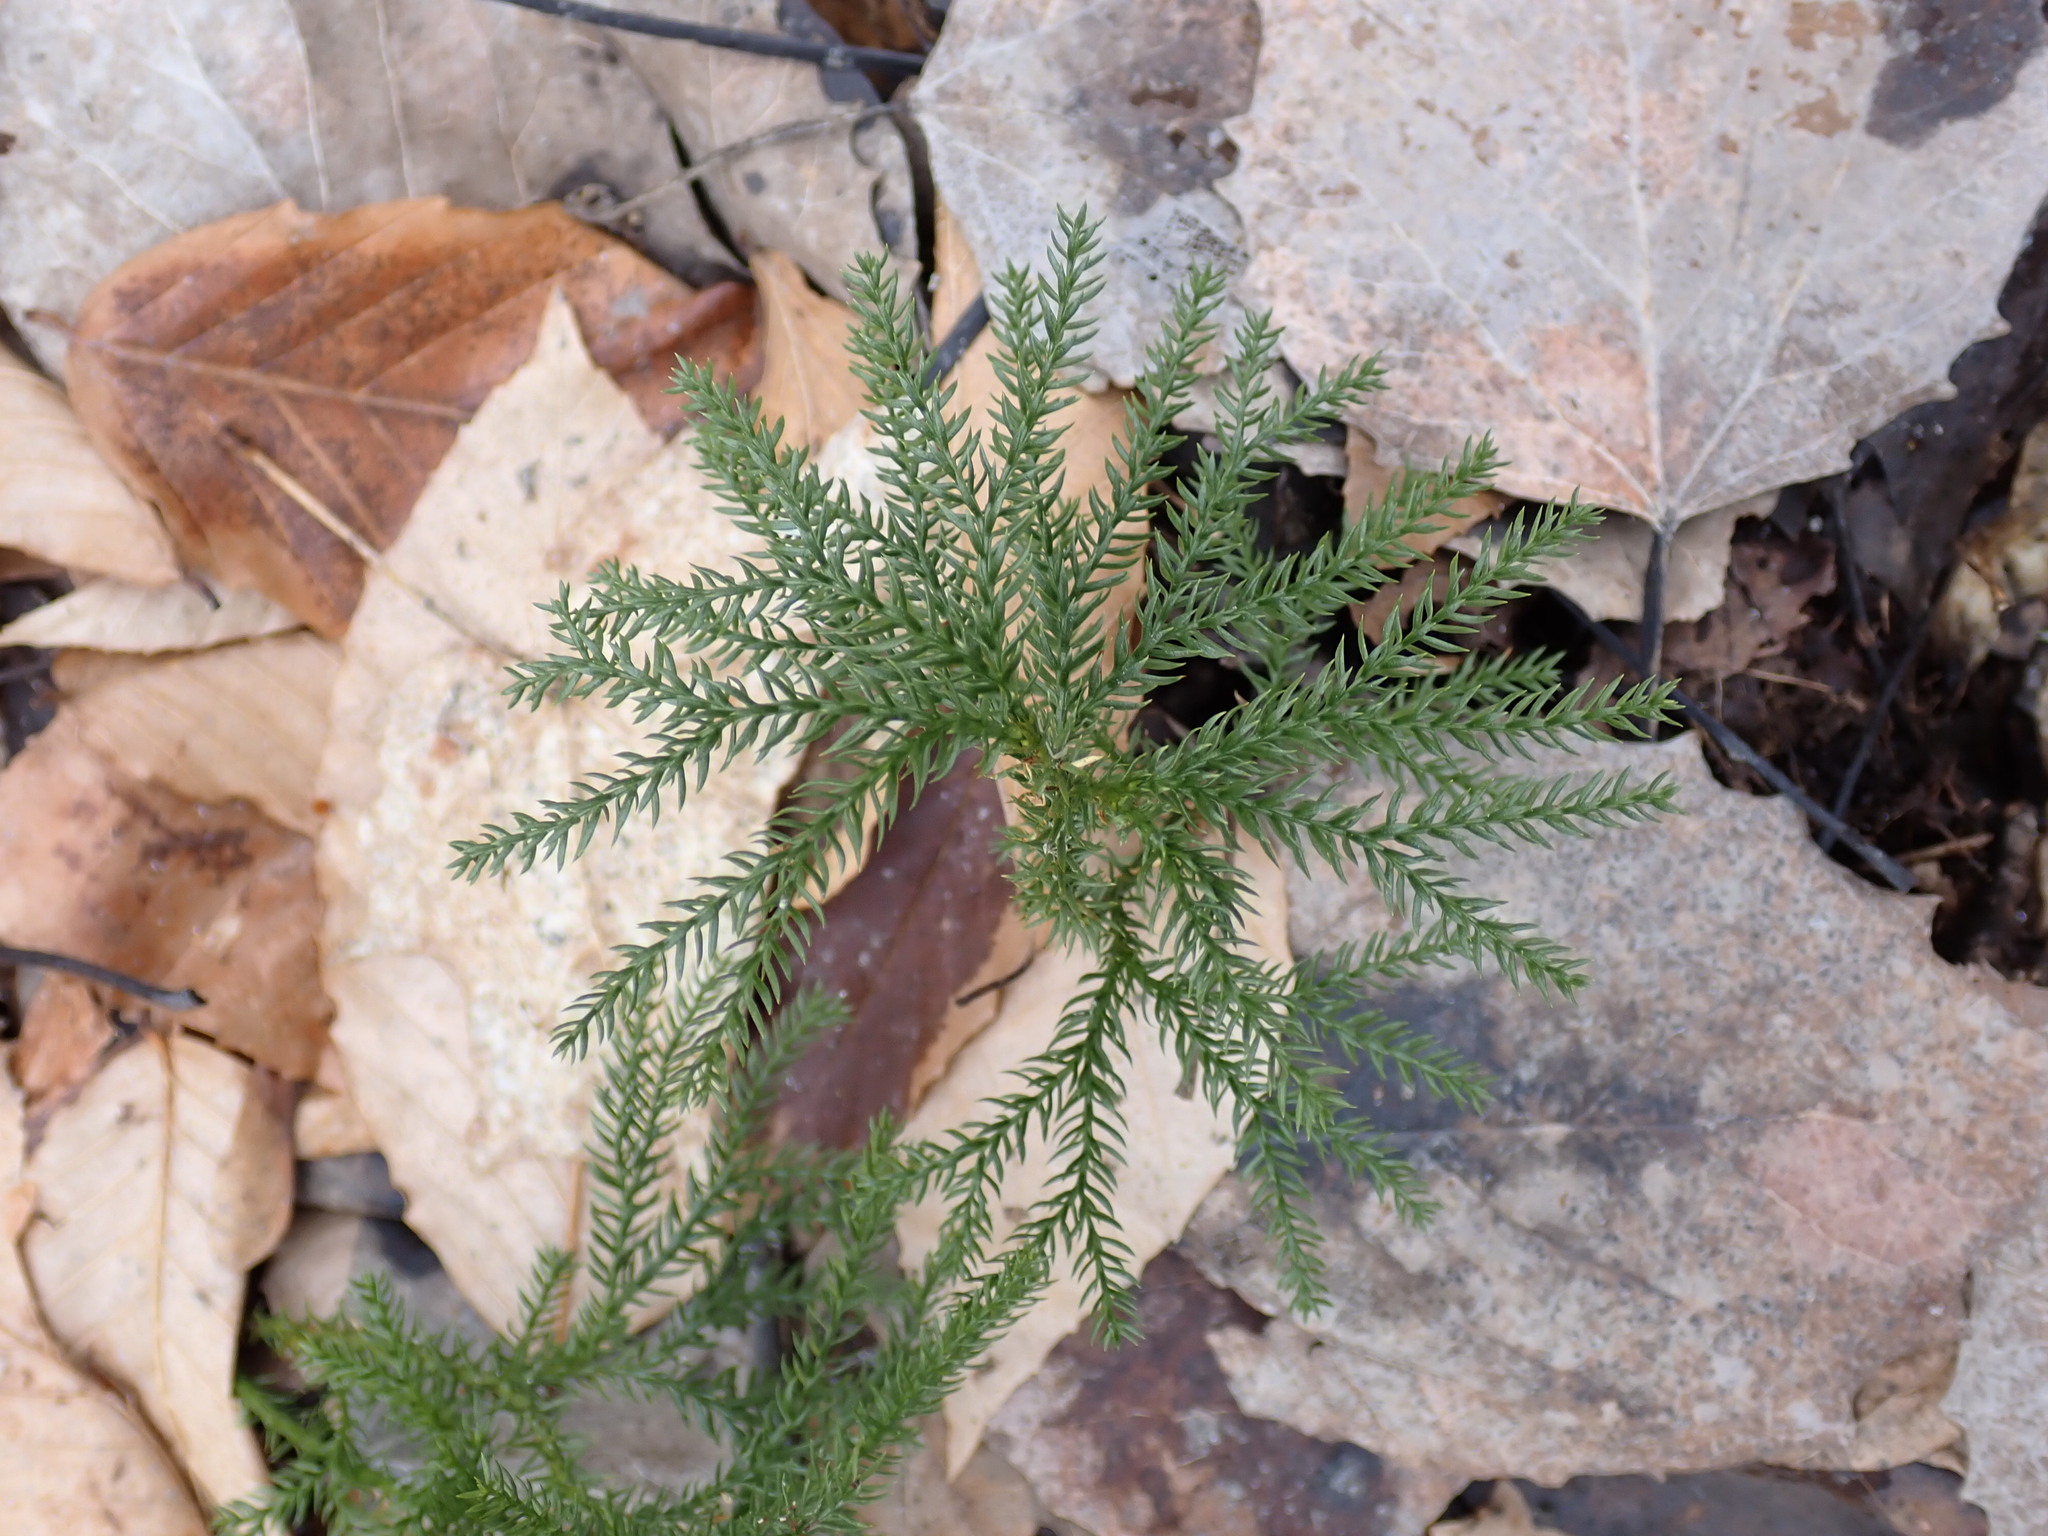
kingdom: Plantae
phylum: Tracheophyta
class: Lycopodiopsida
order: Lycopodiales
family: Lycopodiaceae
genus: Dendrolycopodium
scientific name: Dendrolycopodium dendroideum
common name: Northern tree-clubmoss
